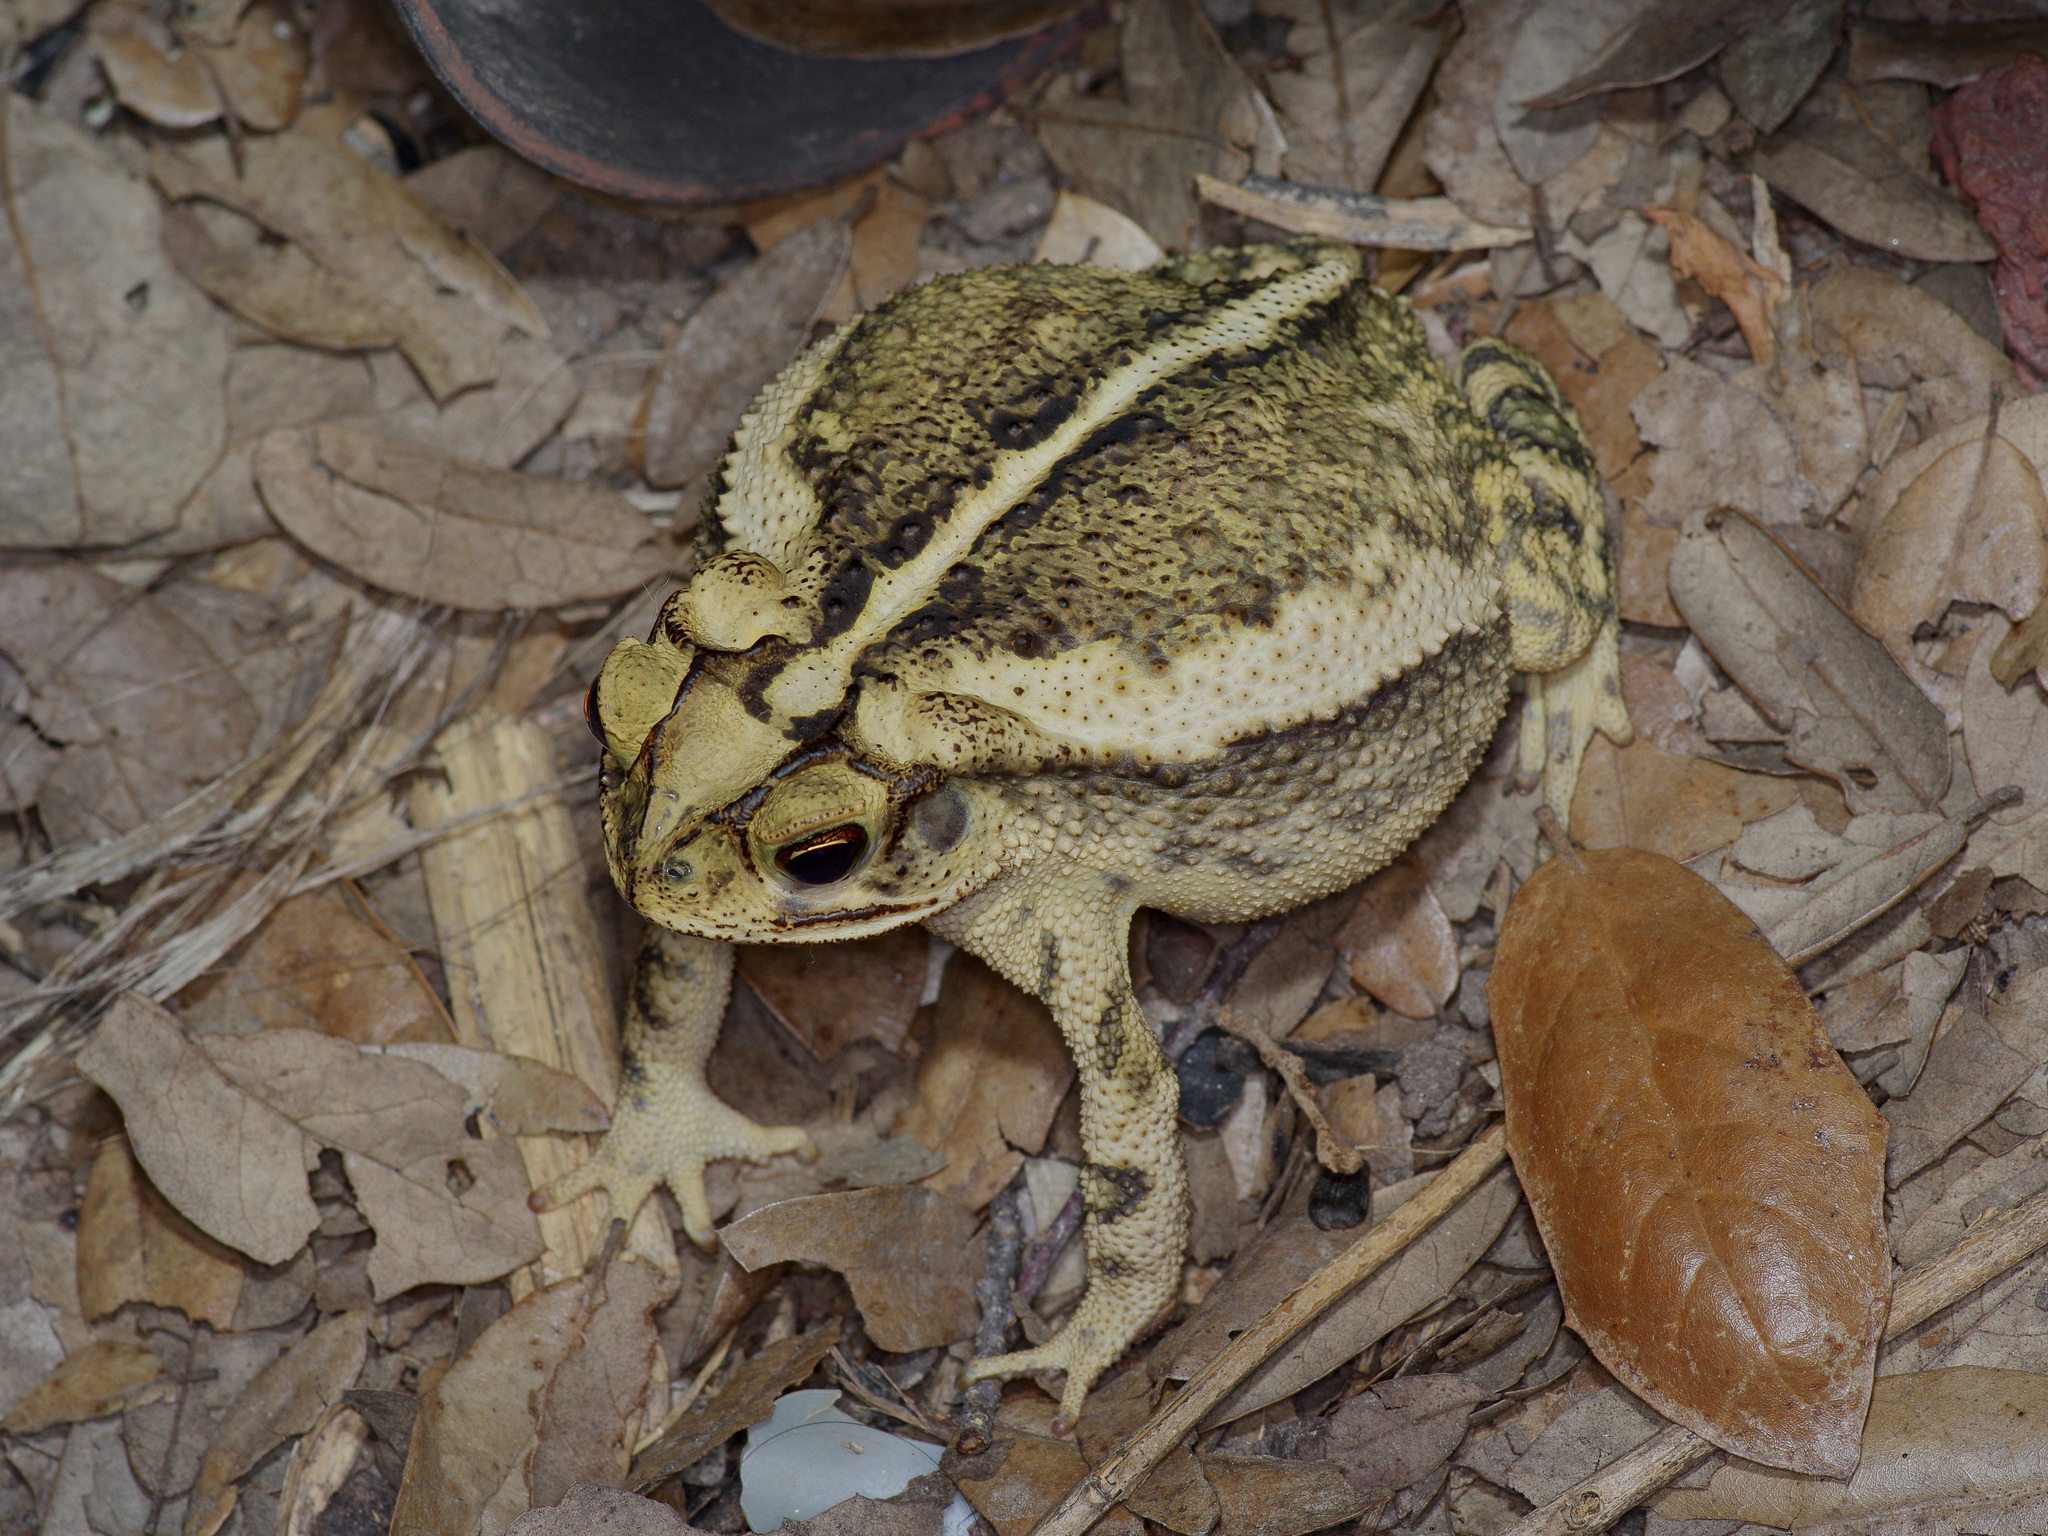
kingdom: Animalia
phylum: Chordata
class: Amphibia
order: Anura
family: Bufonidae
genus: Incilius
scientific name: Incilius nebulifer
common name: Gulf coast toad
